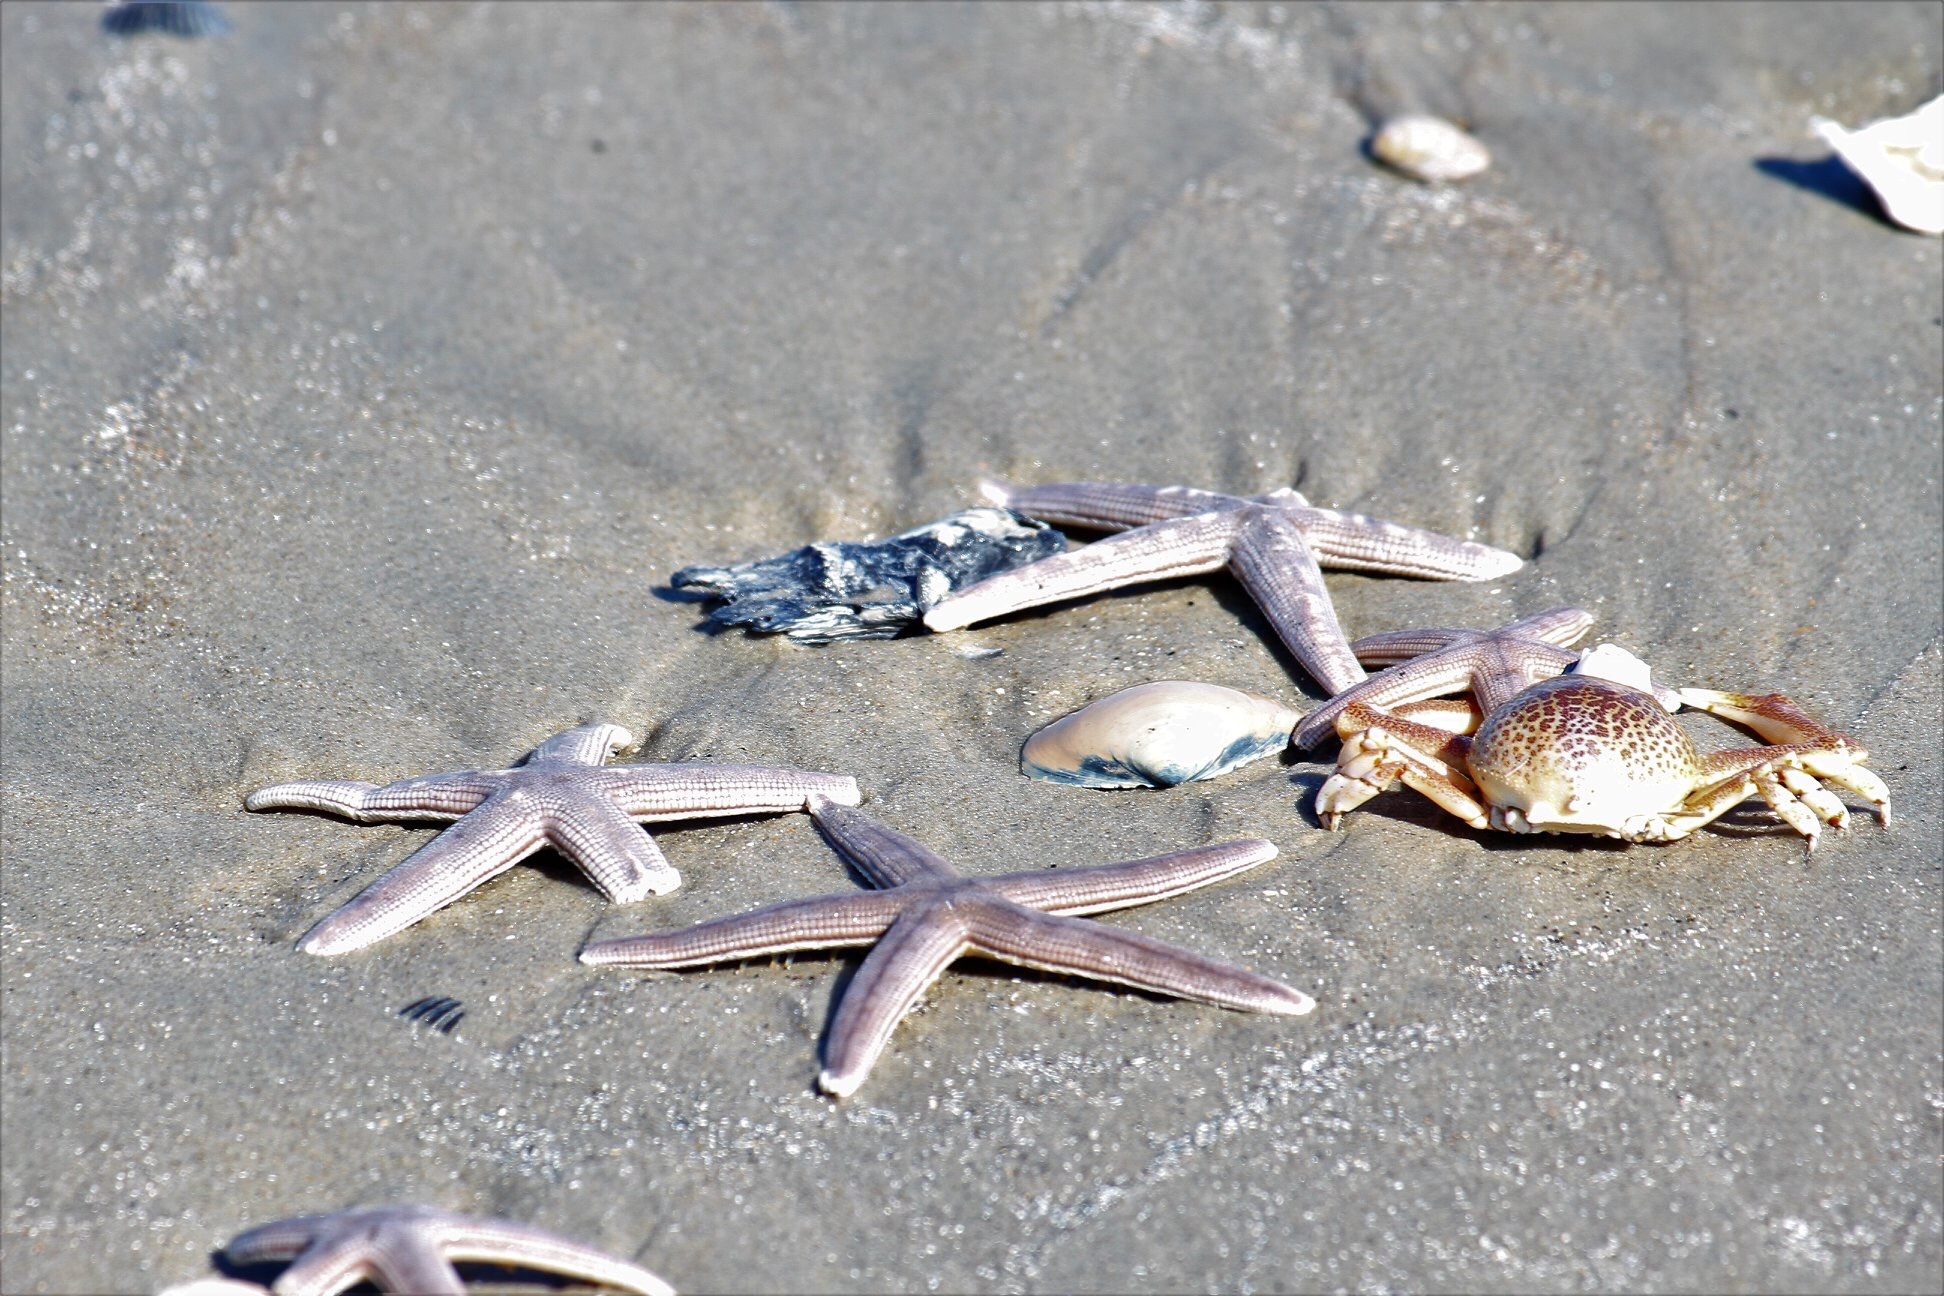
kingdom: Animalia
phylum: Echinodermata
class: Asteroidea
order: Paxillosida
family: Luidiidae
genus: Luidia
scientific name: Luidia clathrata
